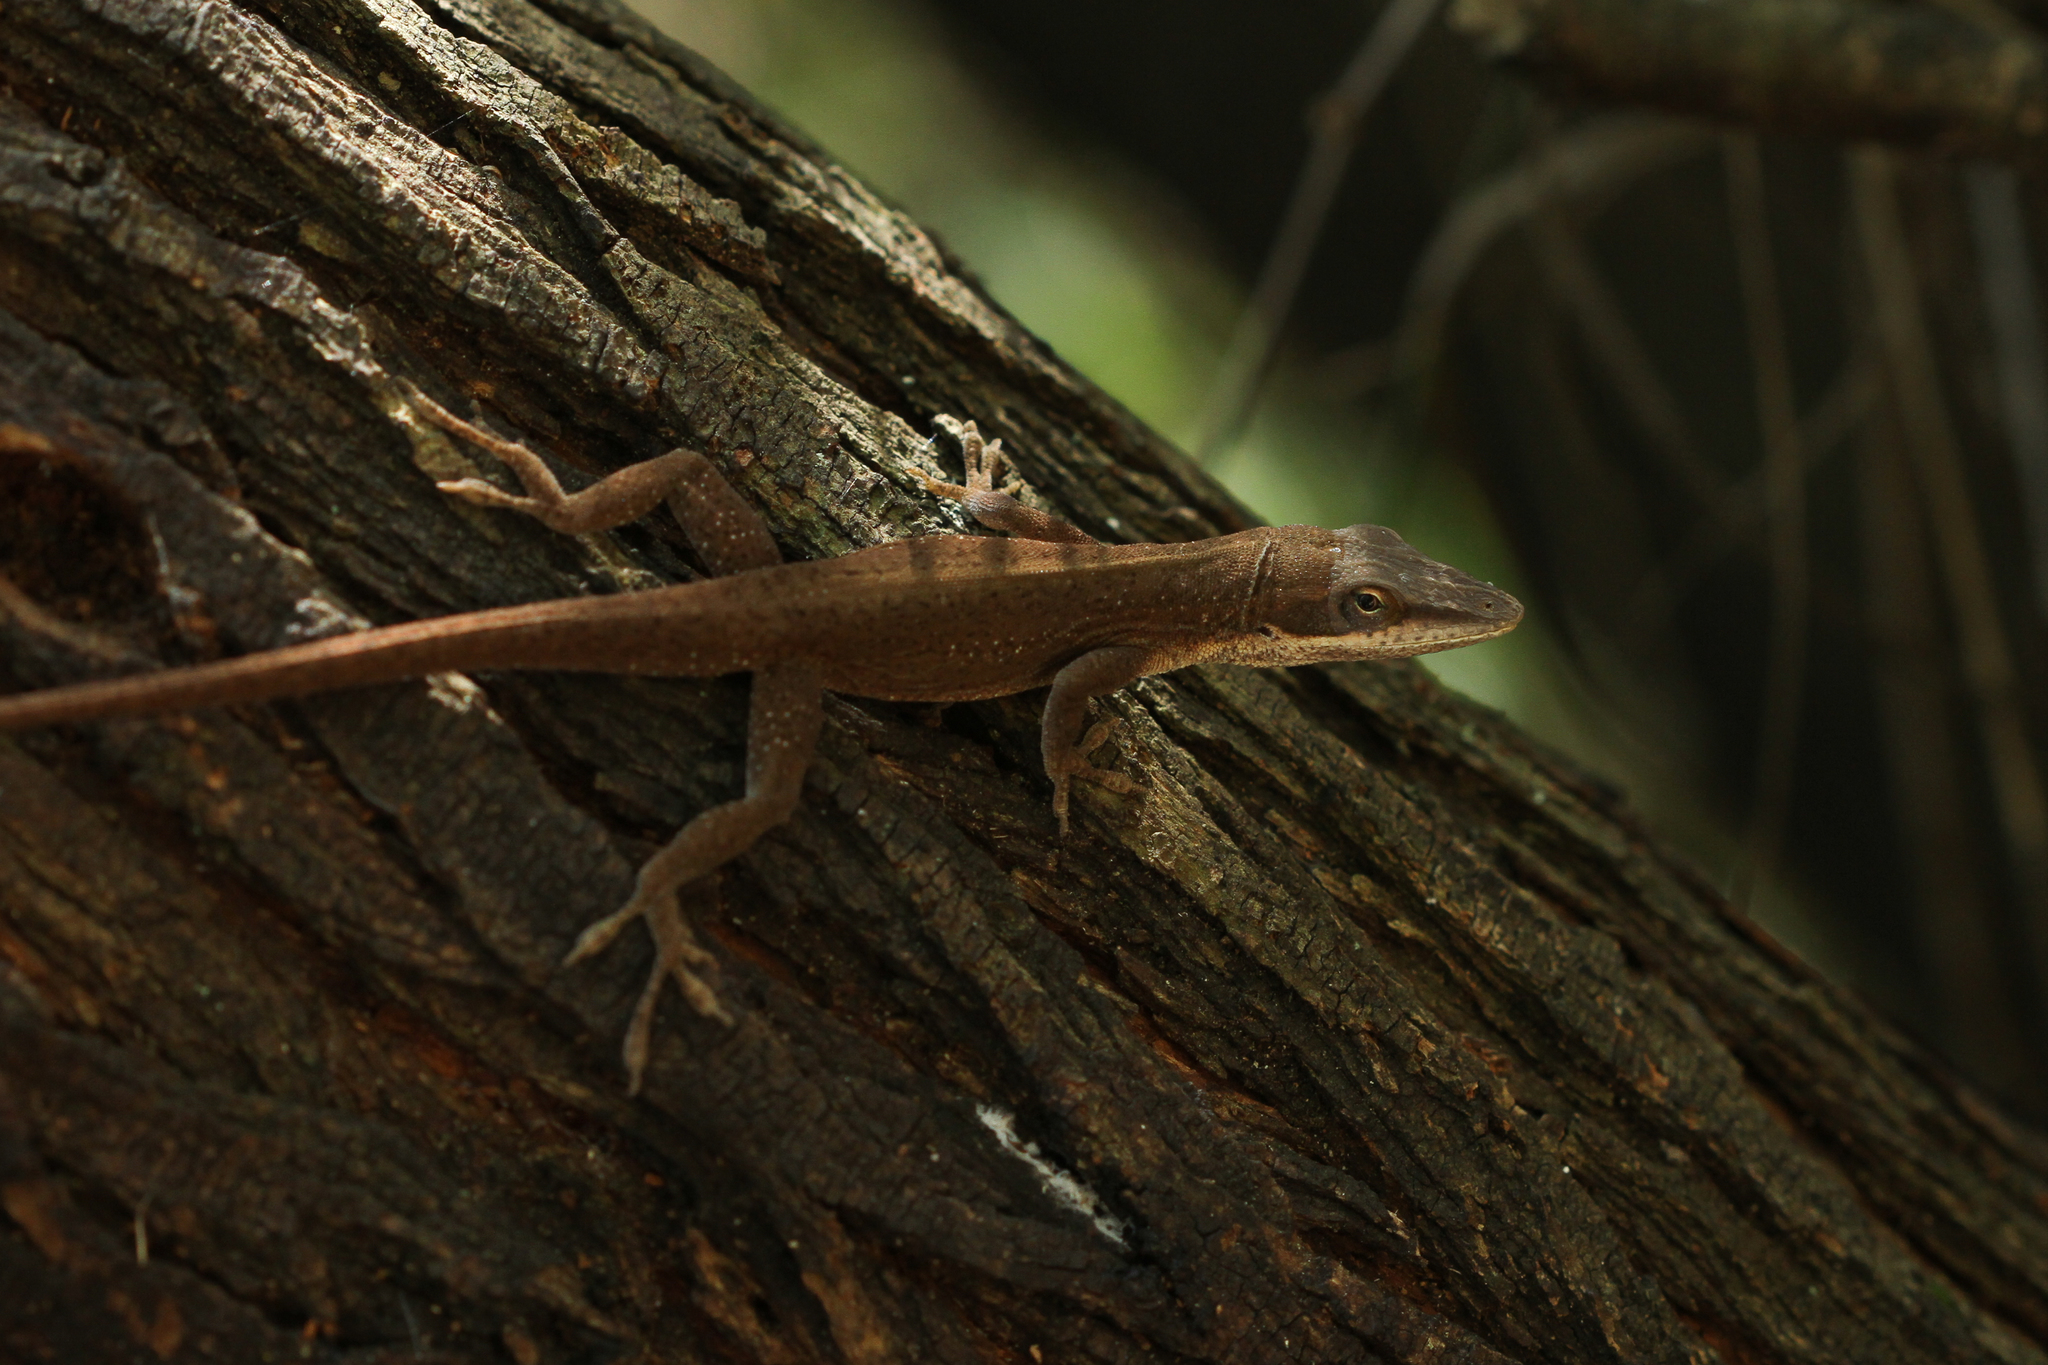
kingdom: Animalia
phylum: Chordata
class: Squamata
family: Dactyloidae
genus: Anolis
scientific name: Anolis carolinensis
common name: Green anole
